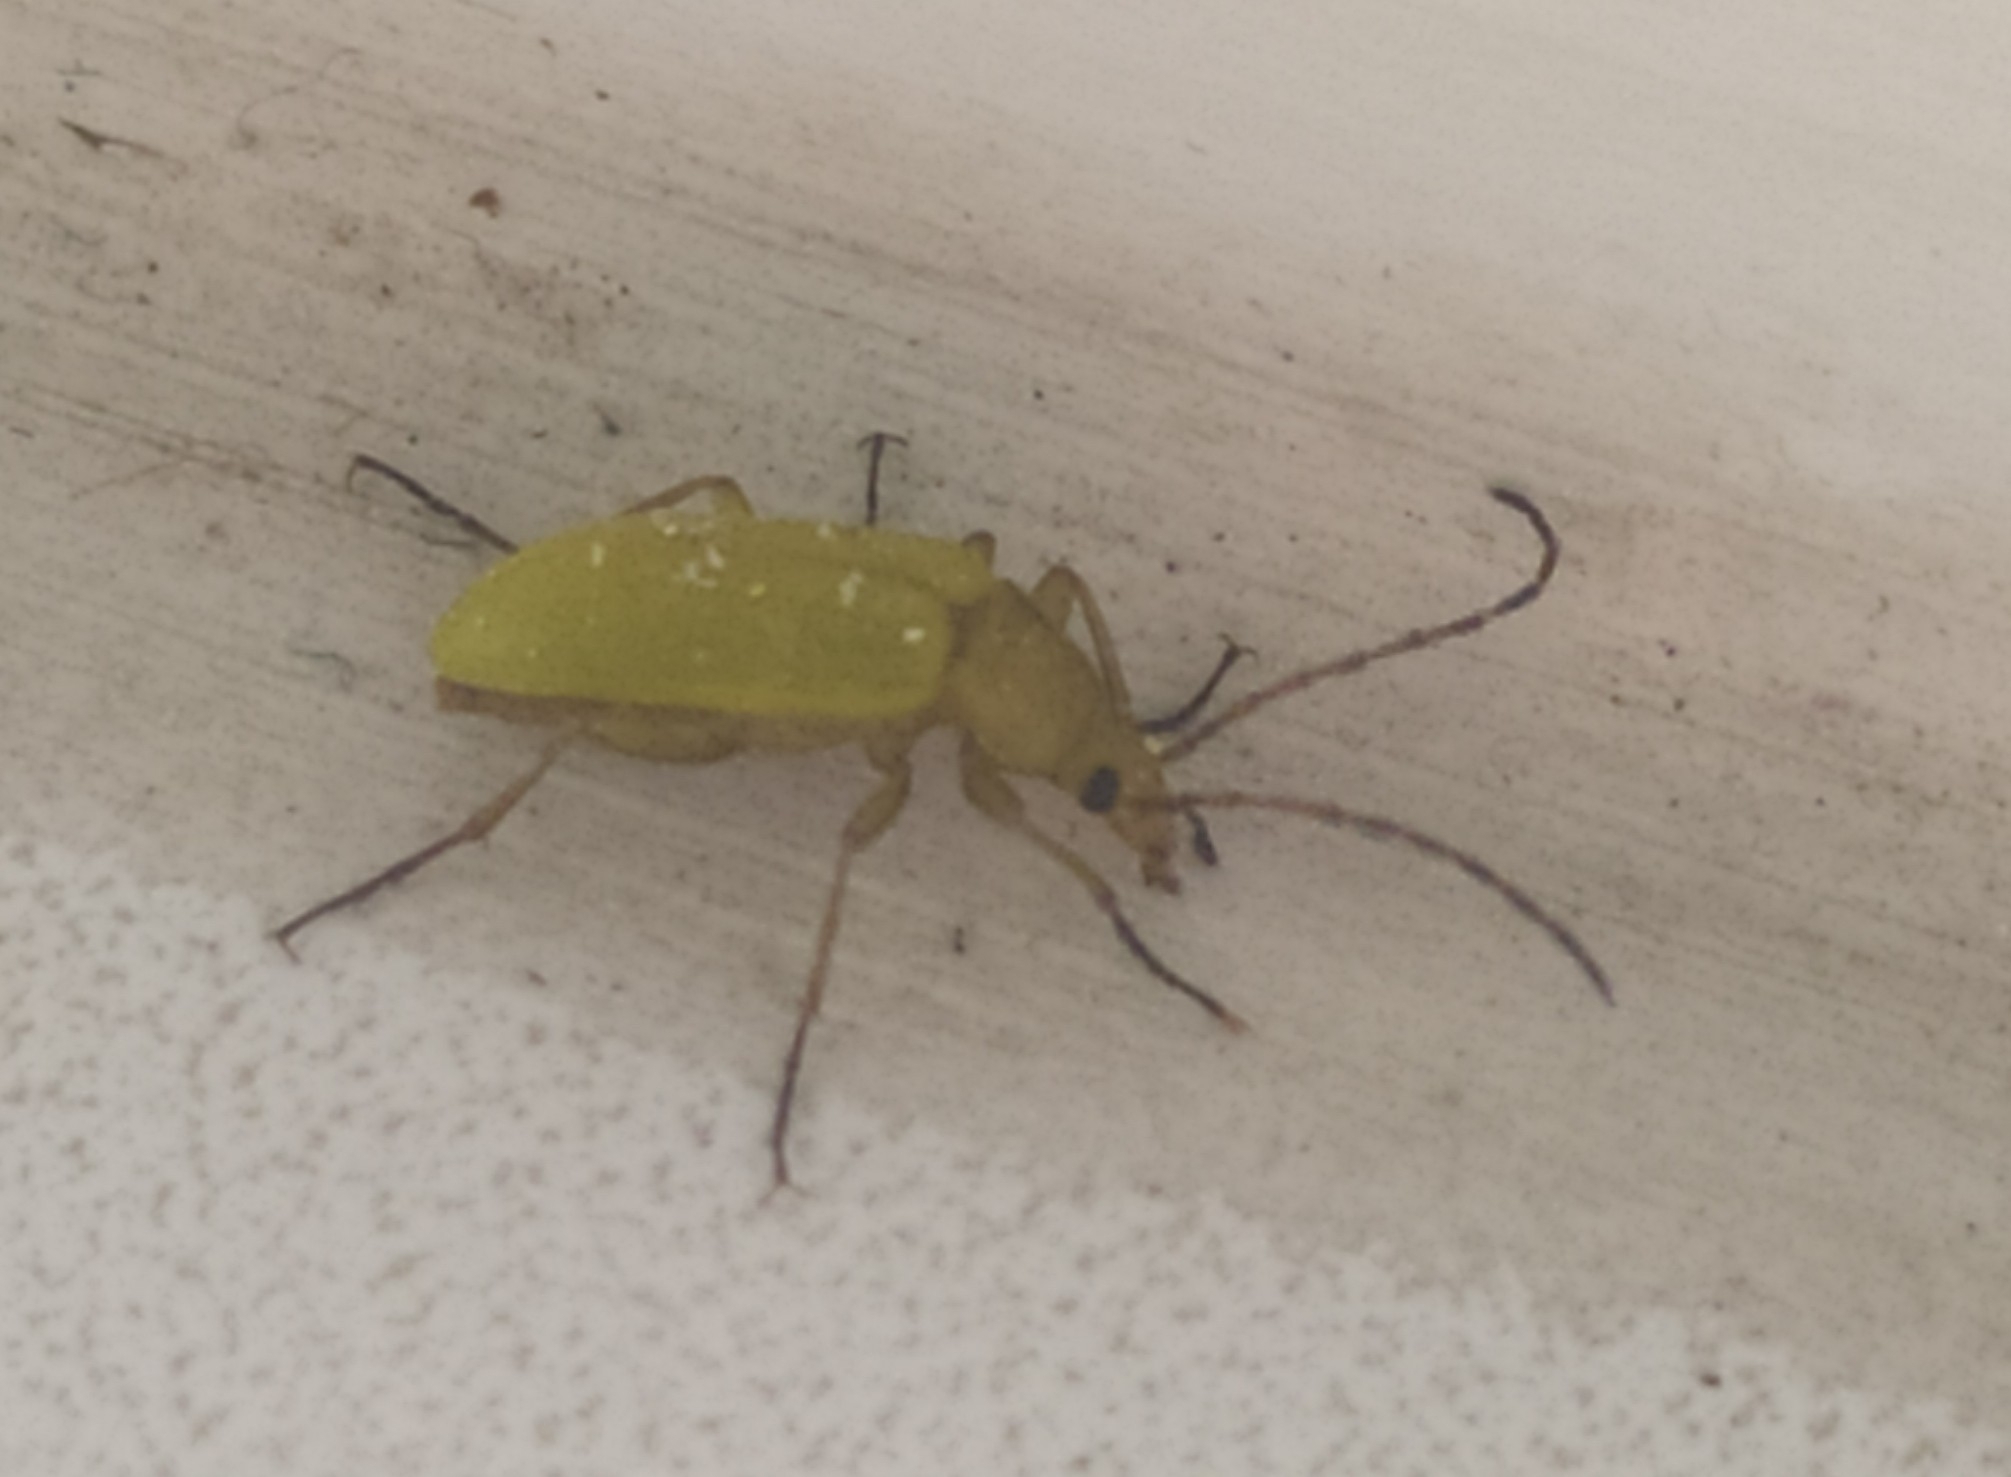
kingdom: Animalia
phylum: Arthropoda
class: Insecta
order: Coleoptera
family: Tenebrionidae
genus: Cteniopus
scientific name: Cteniopus sulphureus
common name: Sulphur beetle
